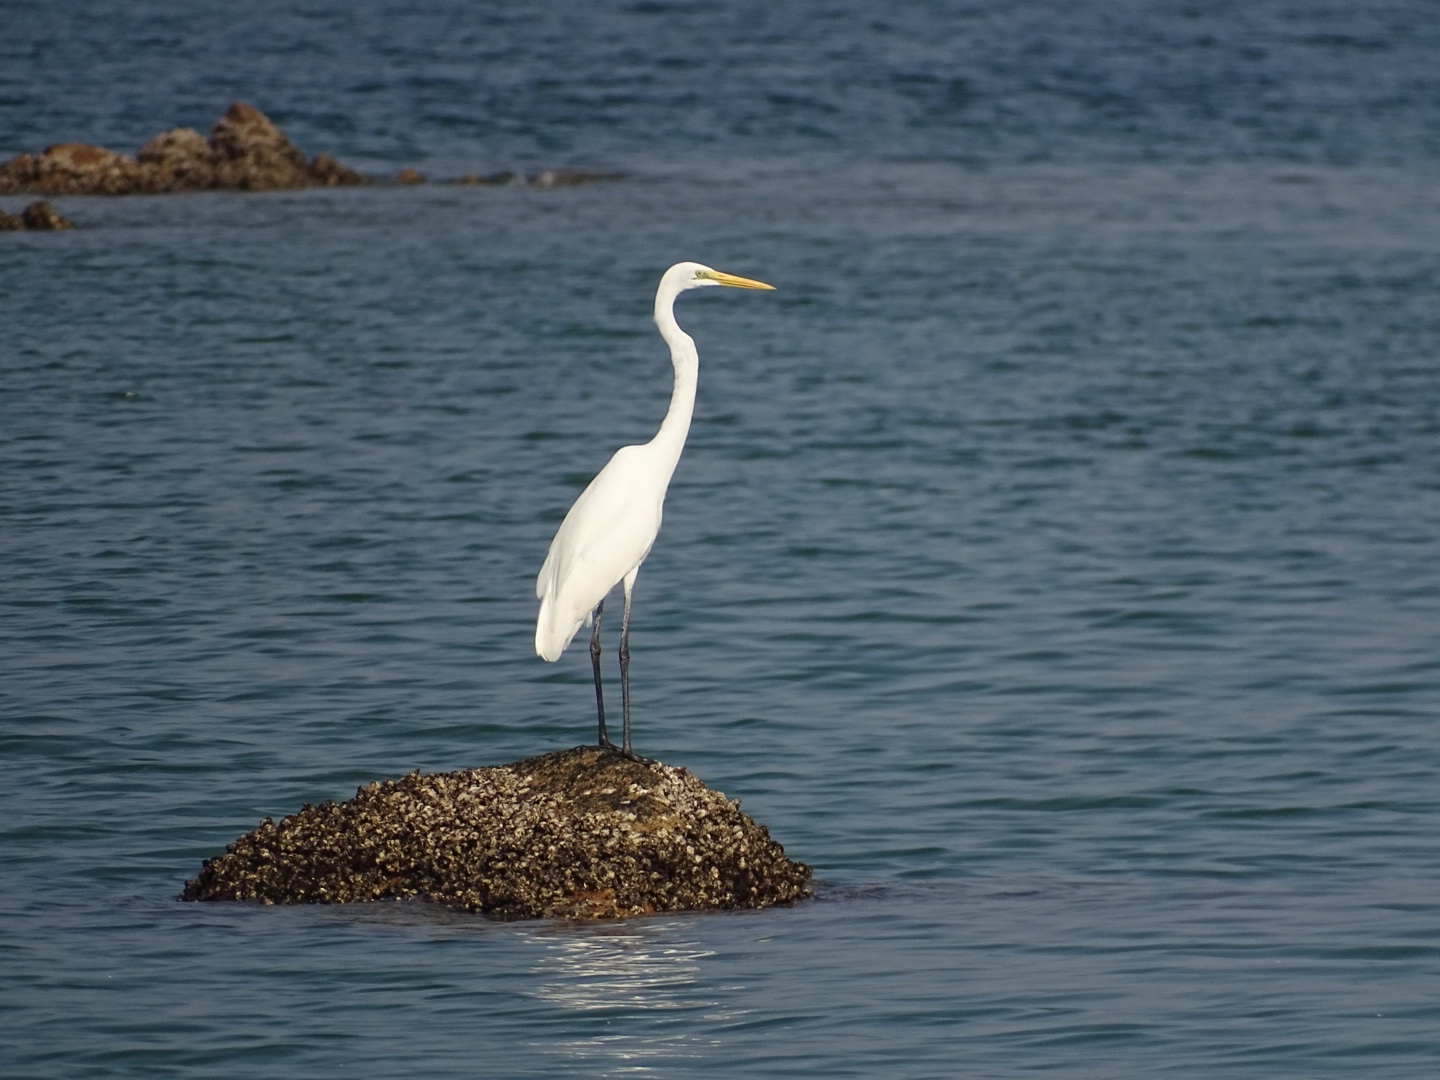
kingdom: Animalia
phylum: Chordata
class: Aves
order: Pelecaniformes
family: Ardeidae
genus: Ardea
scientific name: Ardea alba
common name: Great egret
